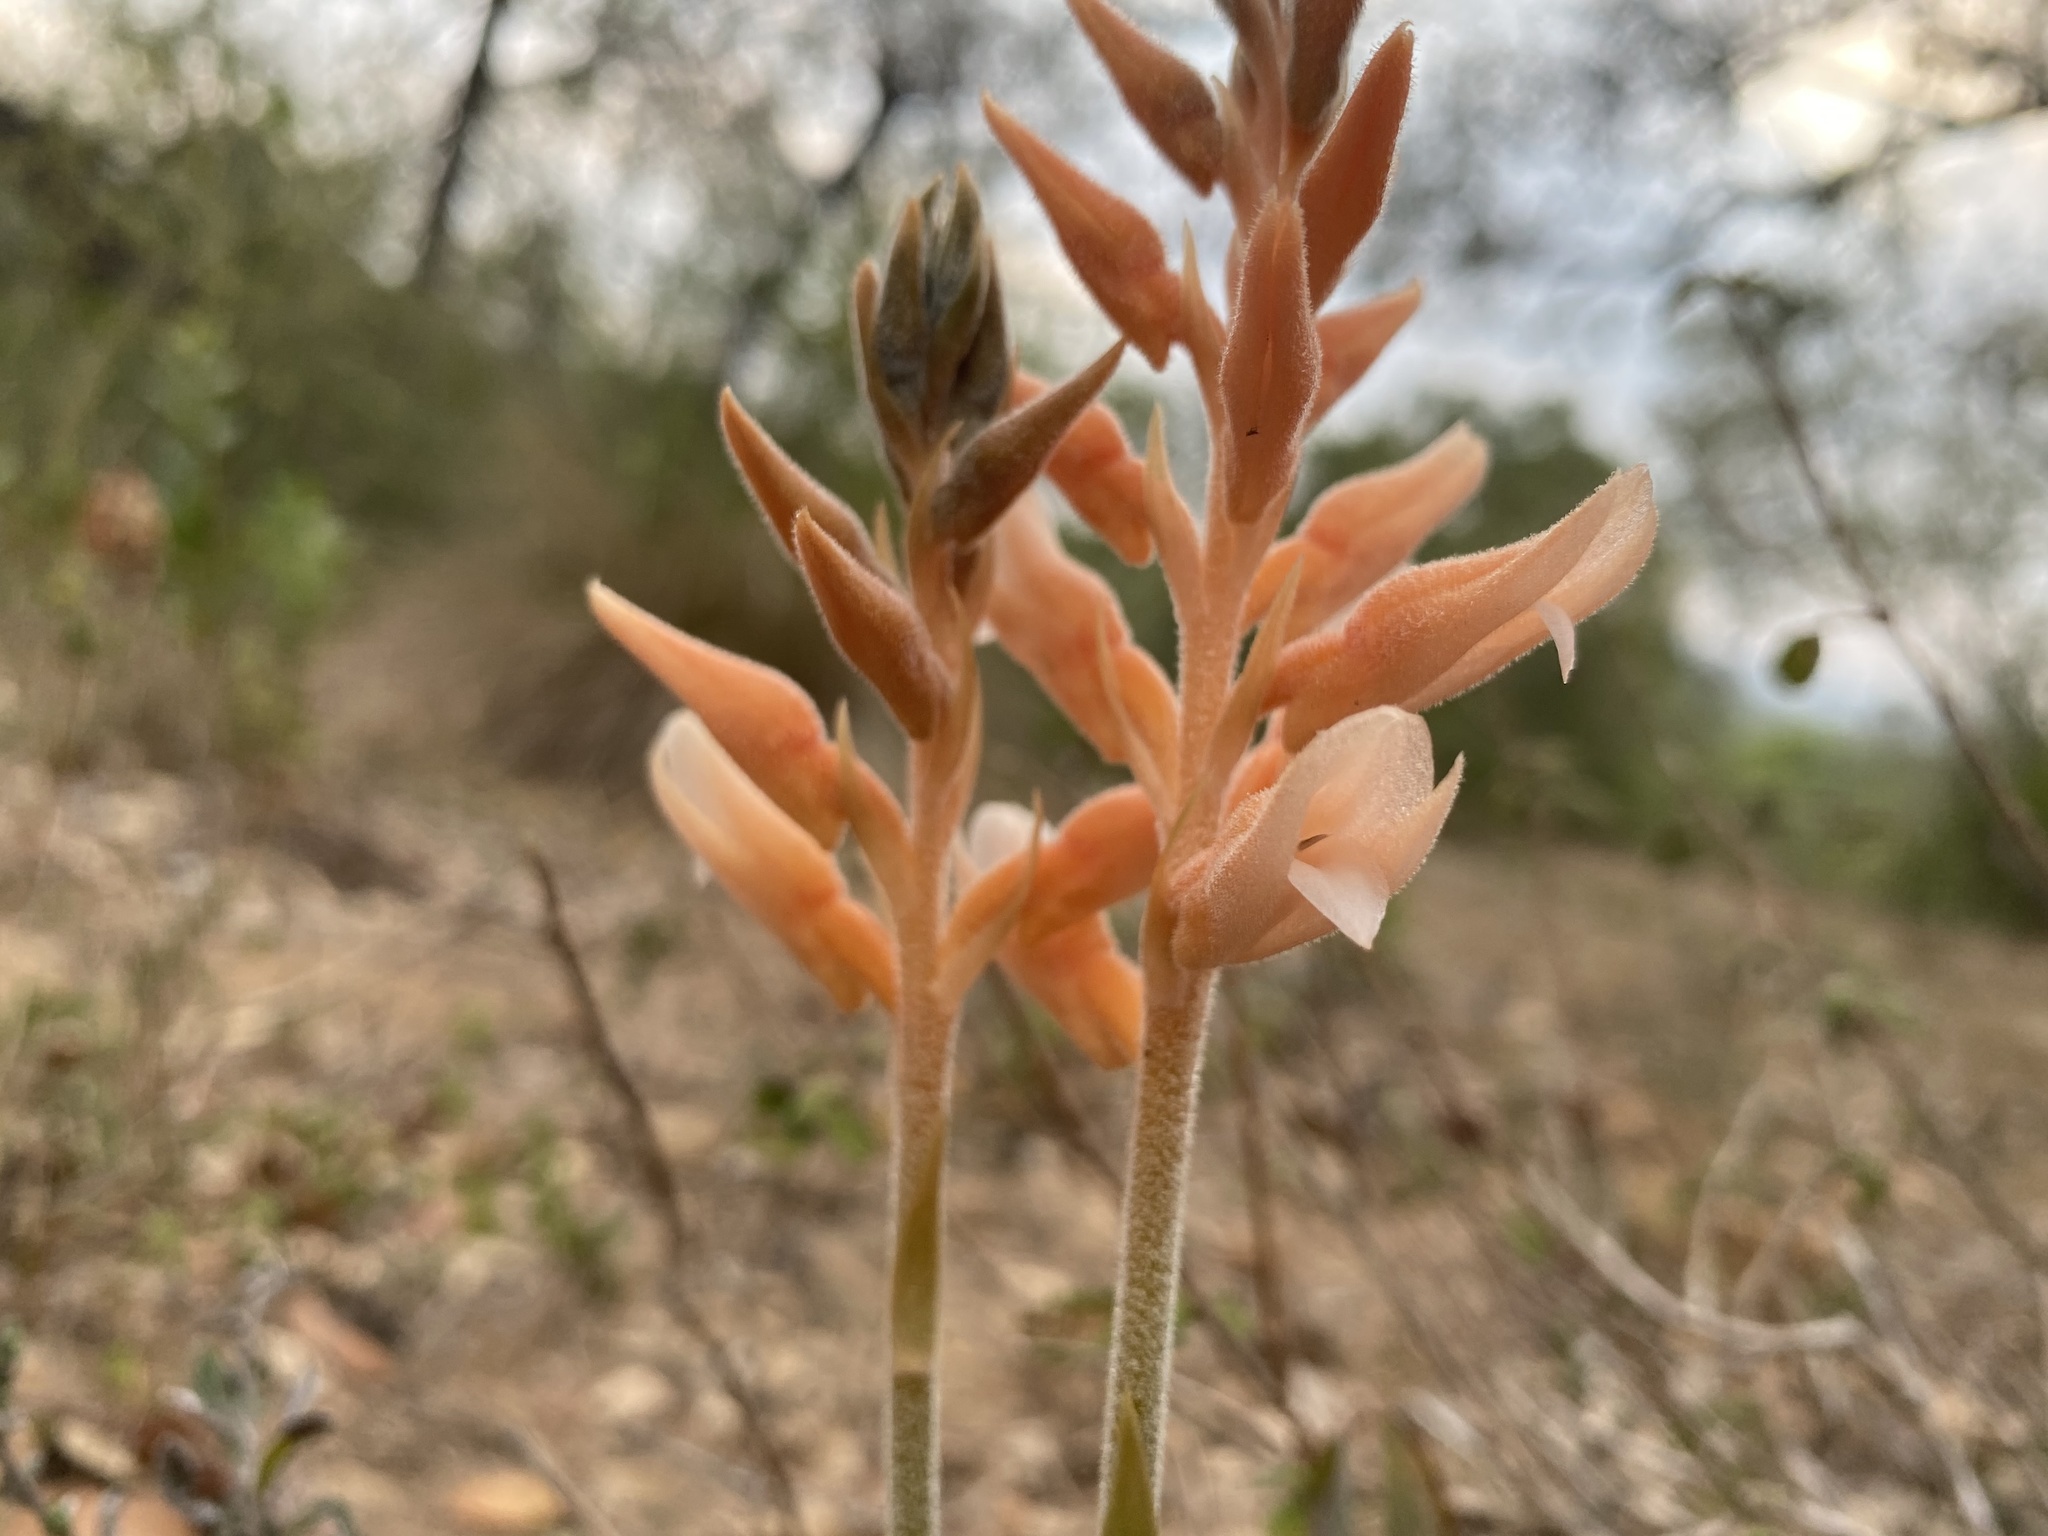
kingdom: Plantae
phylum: Tracheophyta
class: Liliopsida
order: Asparagales
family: Orchidaceae
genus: Sacoila
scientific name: Sacoila lanceolata
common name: Leafless beaked ladiestresses
